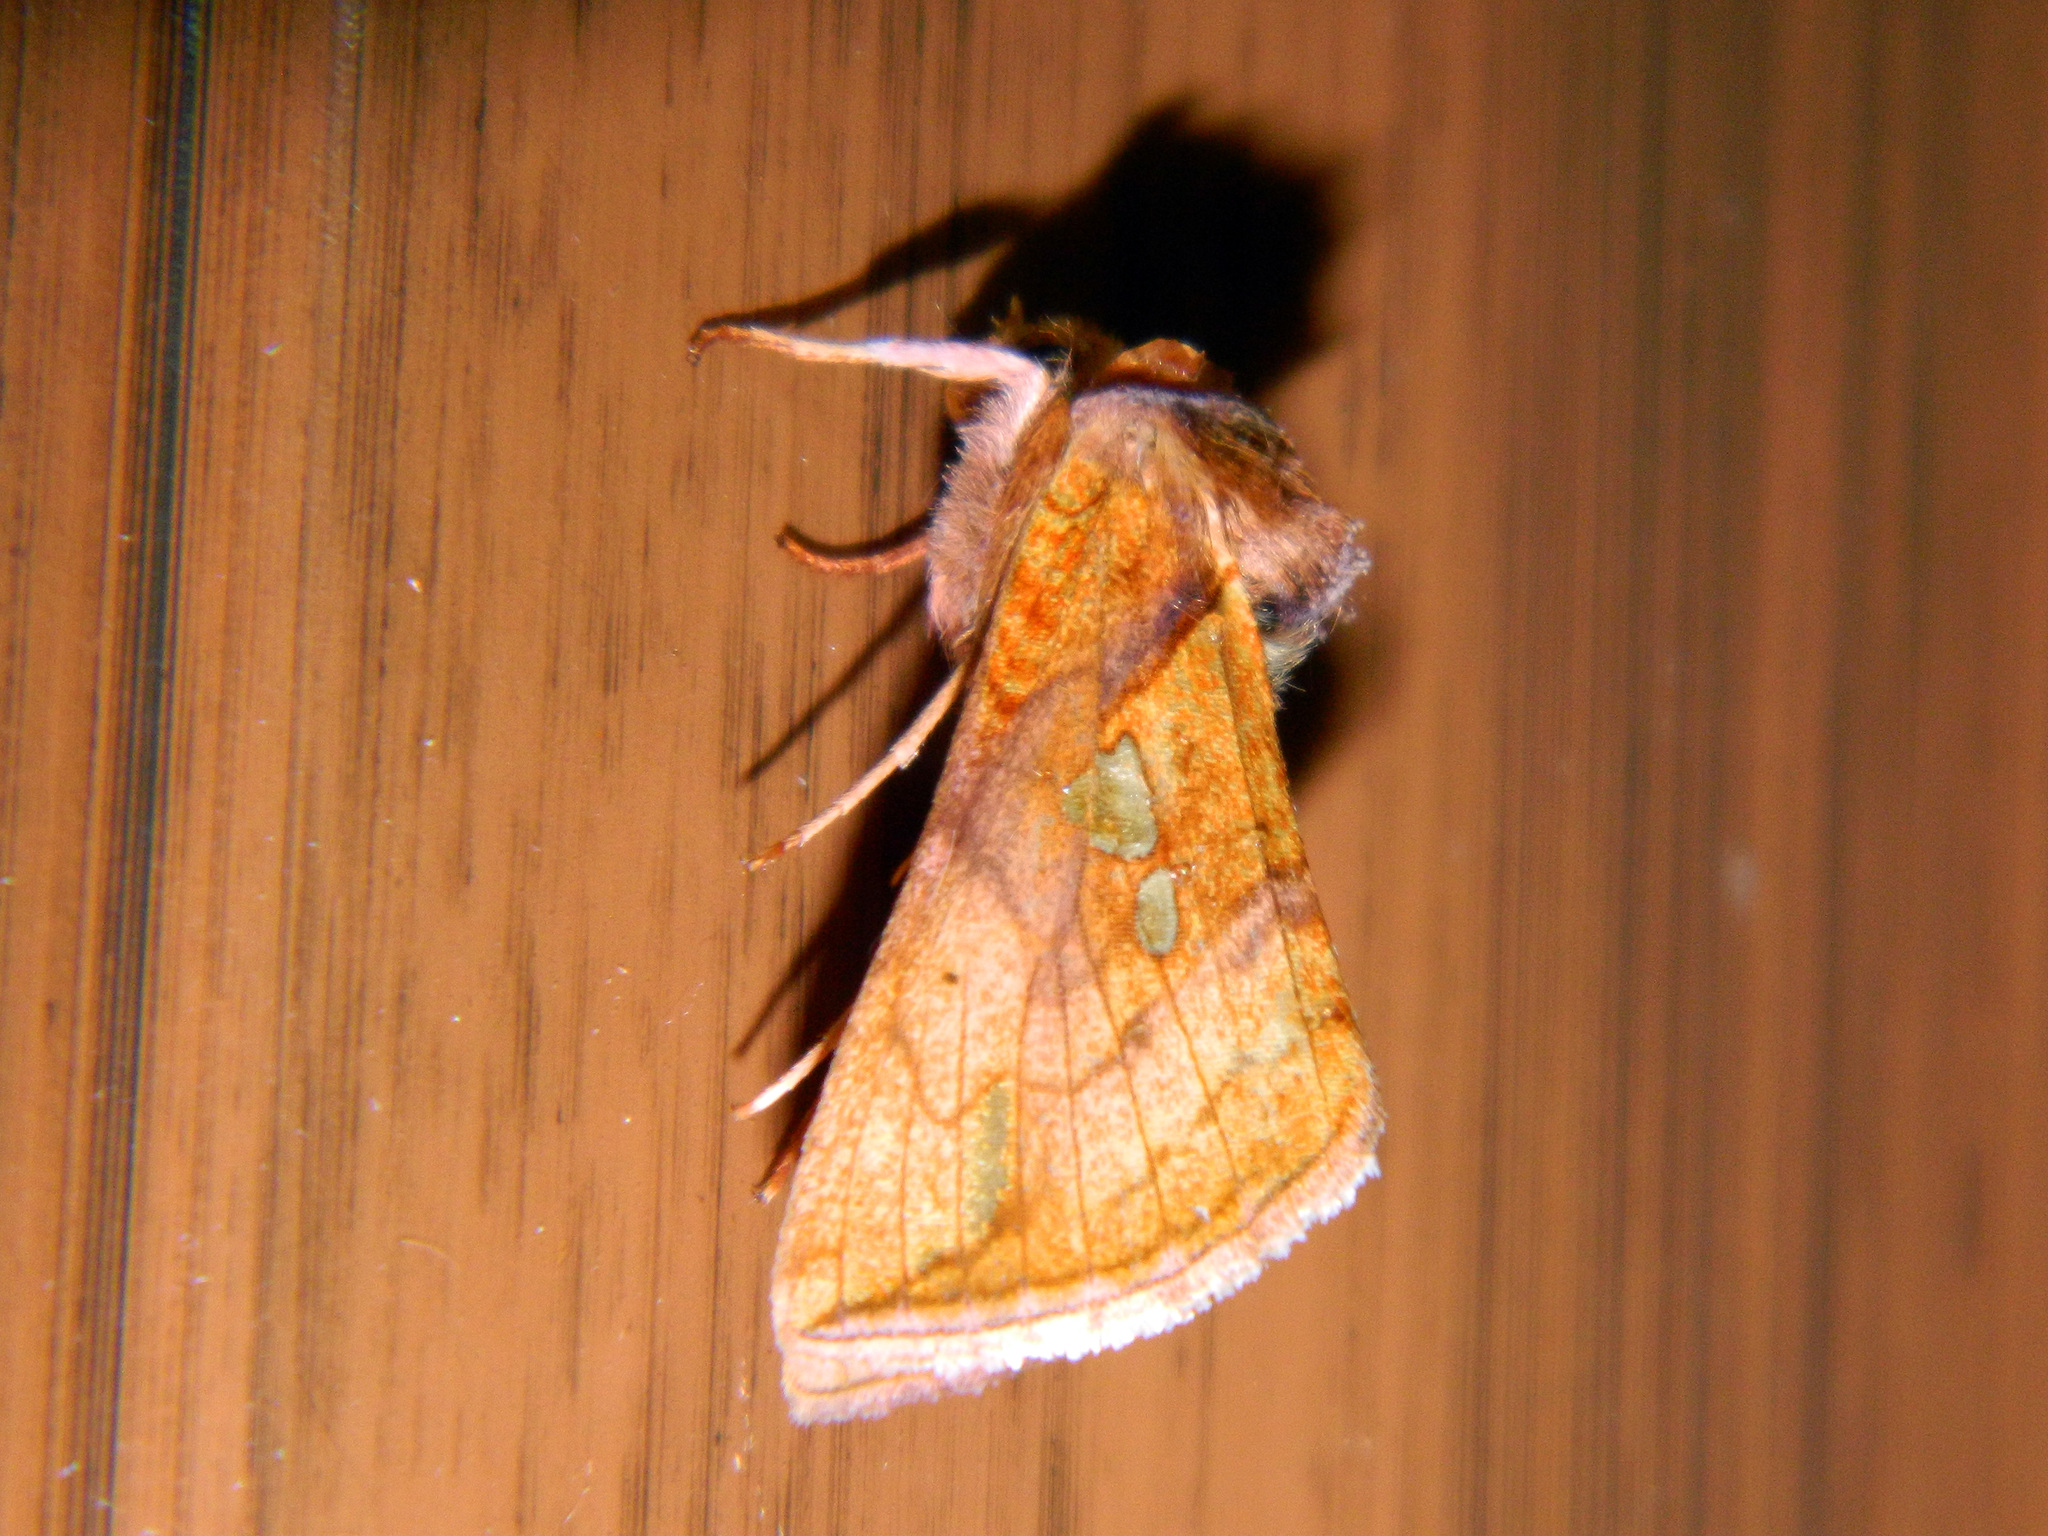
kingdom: Animalia
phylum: Arthropoda
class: Insecta
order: Lepidoptera
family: Noctuidae
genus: Plusia
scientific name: Plusia putnami
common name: Lempke's gold spot
